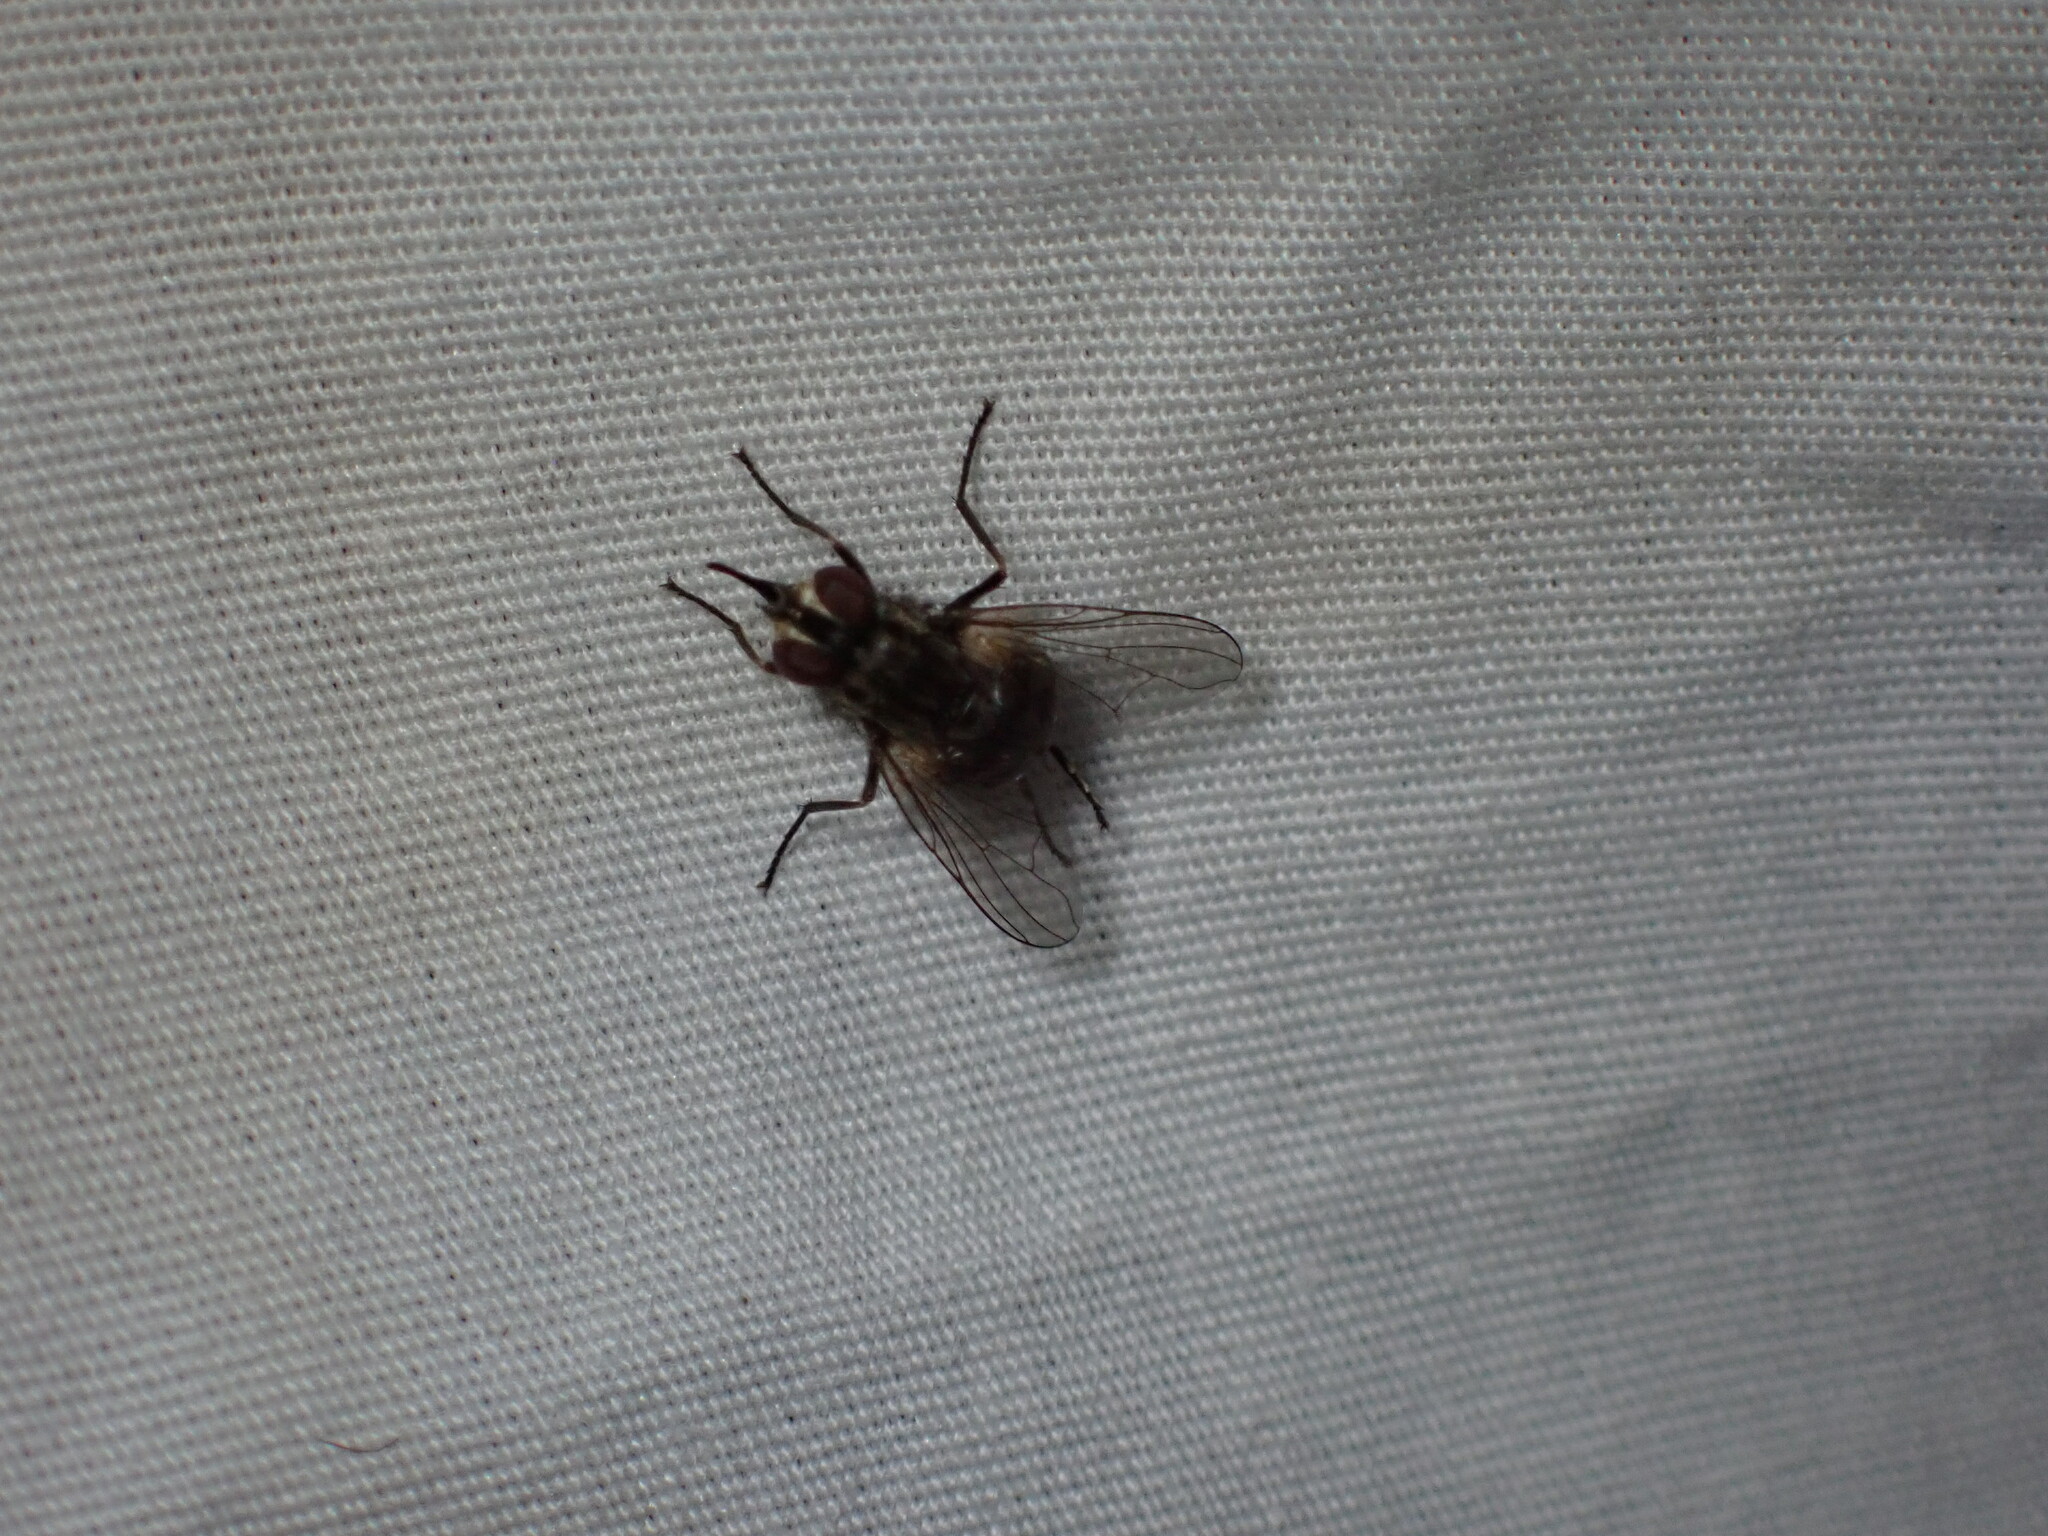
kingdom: Animalia
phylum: Arthropoda
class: Insecta
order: Diptera
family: Muscidae
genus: Stomoxys
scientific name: Stomoxys calcitrans
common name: Stable fly
